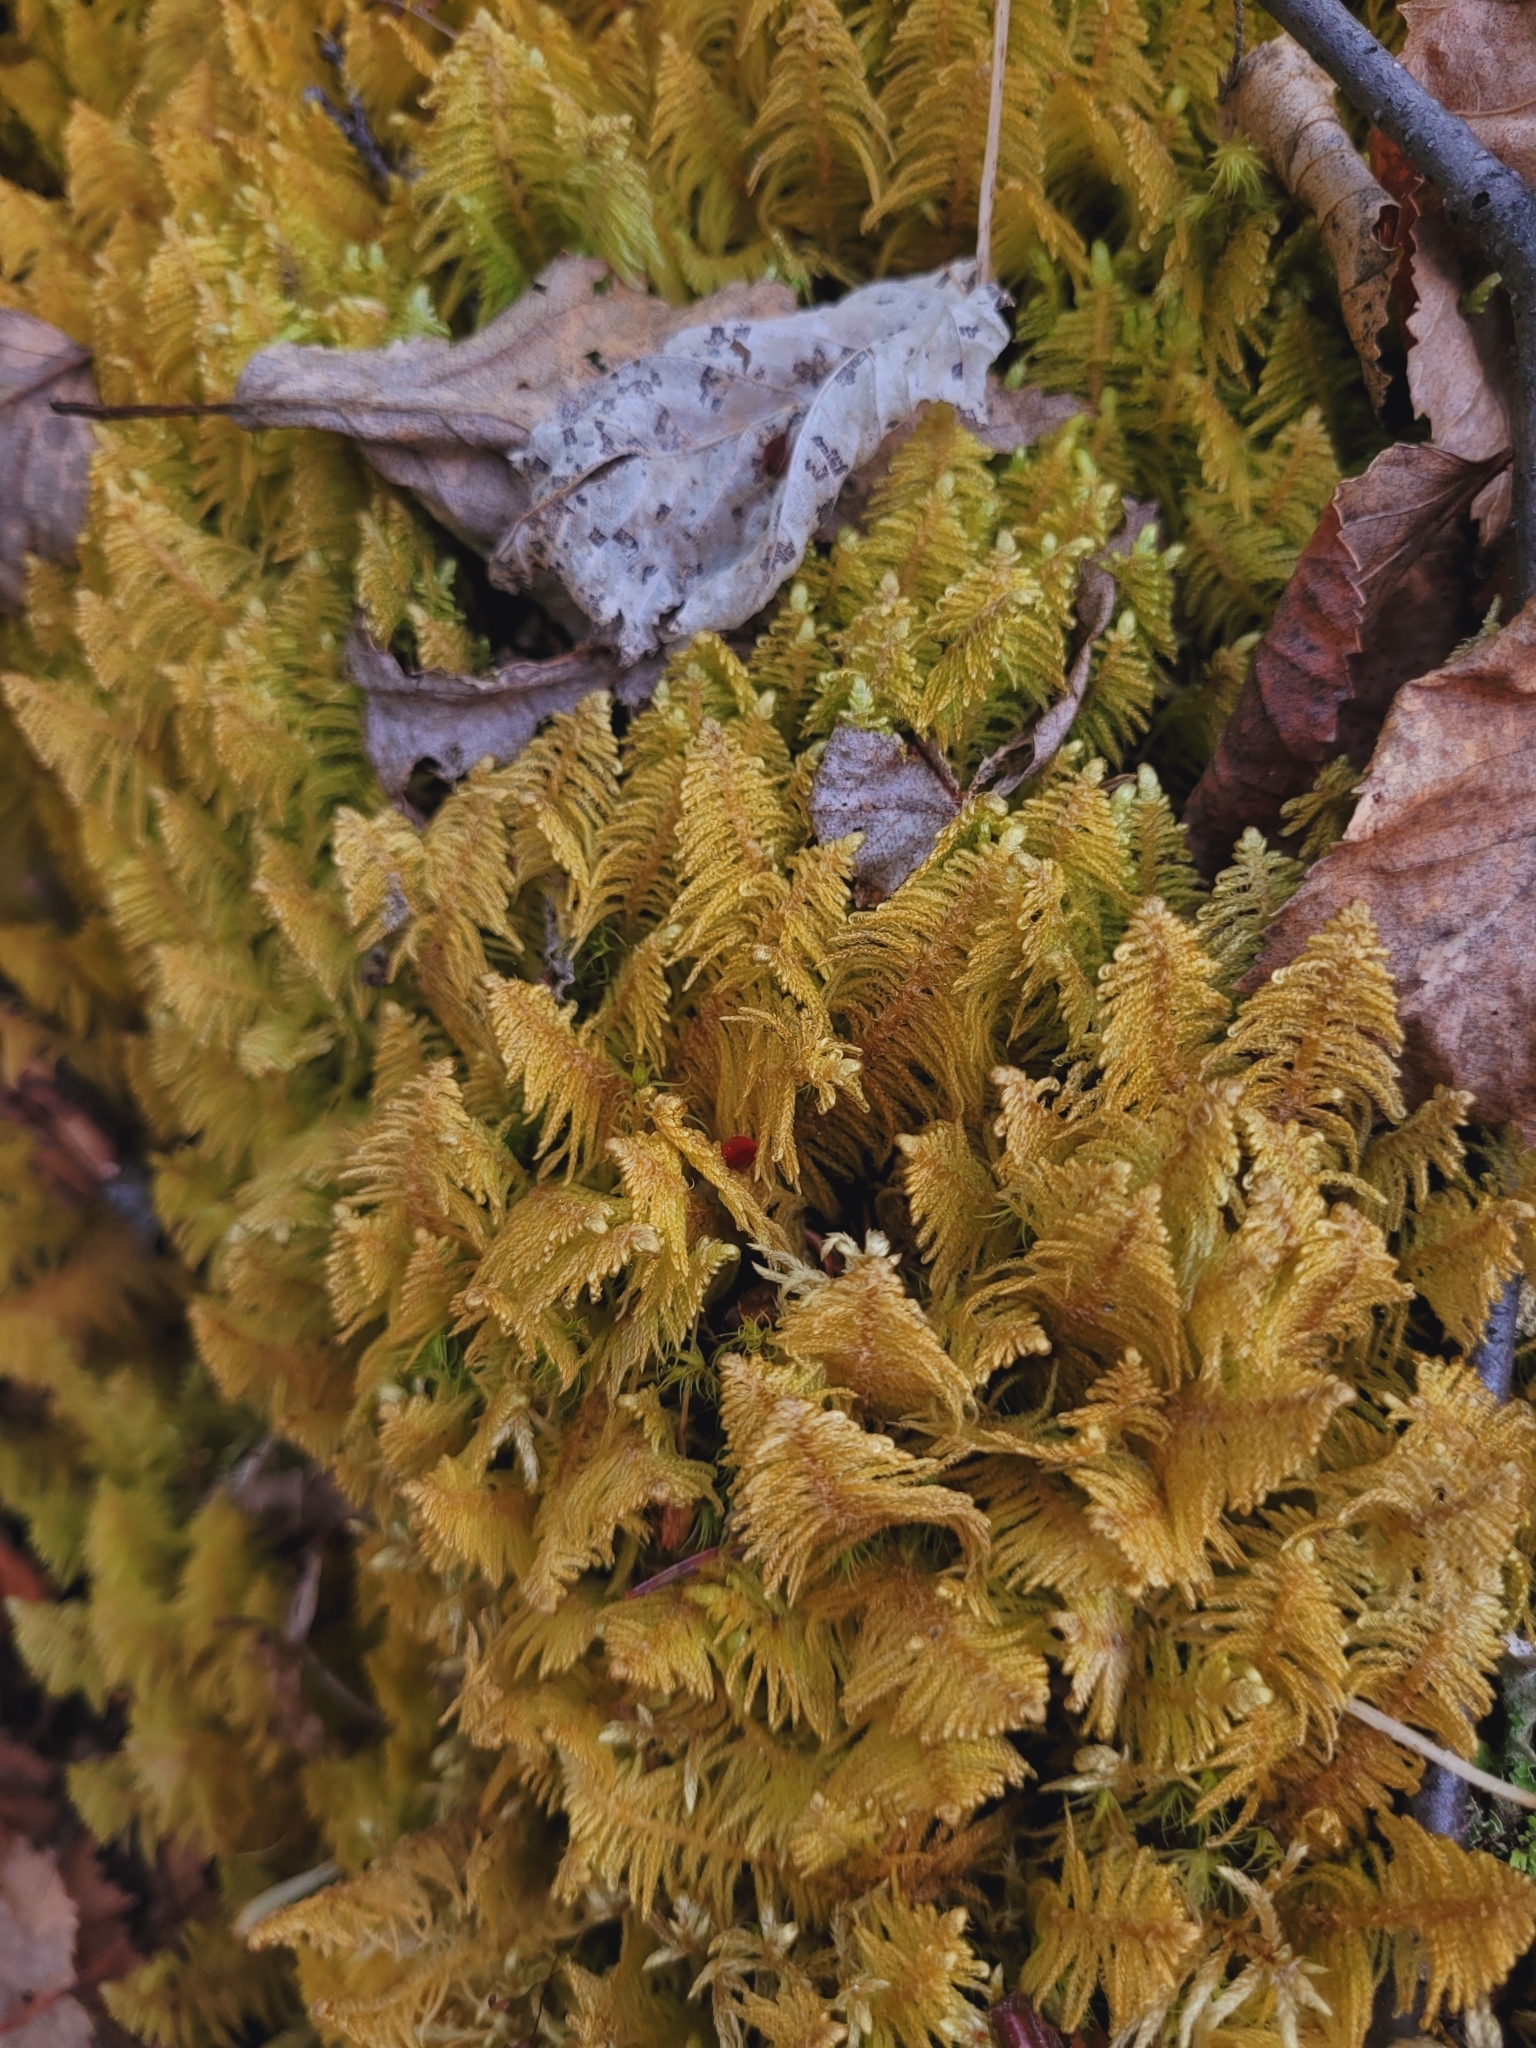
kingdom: Plantae
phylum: Bryophyta
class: Bryopsida
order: Hypnales
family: Pylaisiaceae
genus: Ptilium
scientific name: Ptilium crista-castrensis
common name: Knight's plume moss
